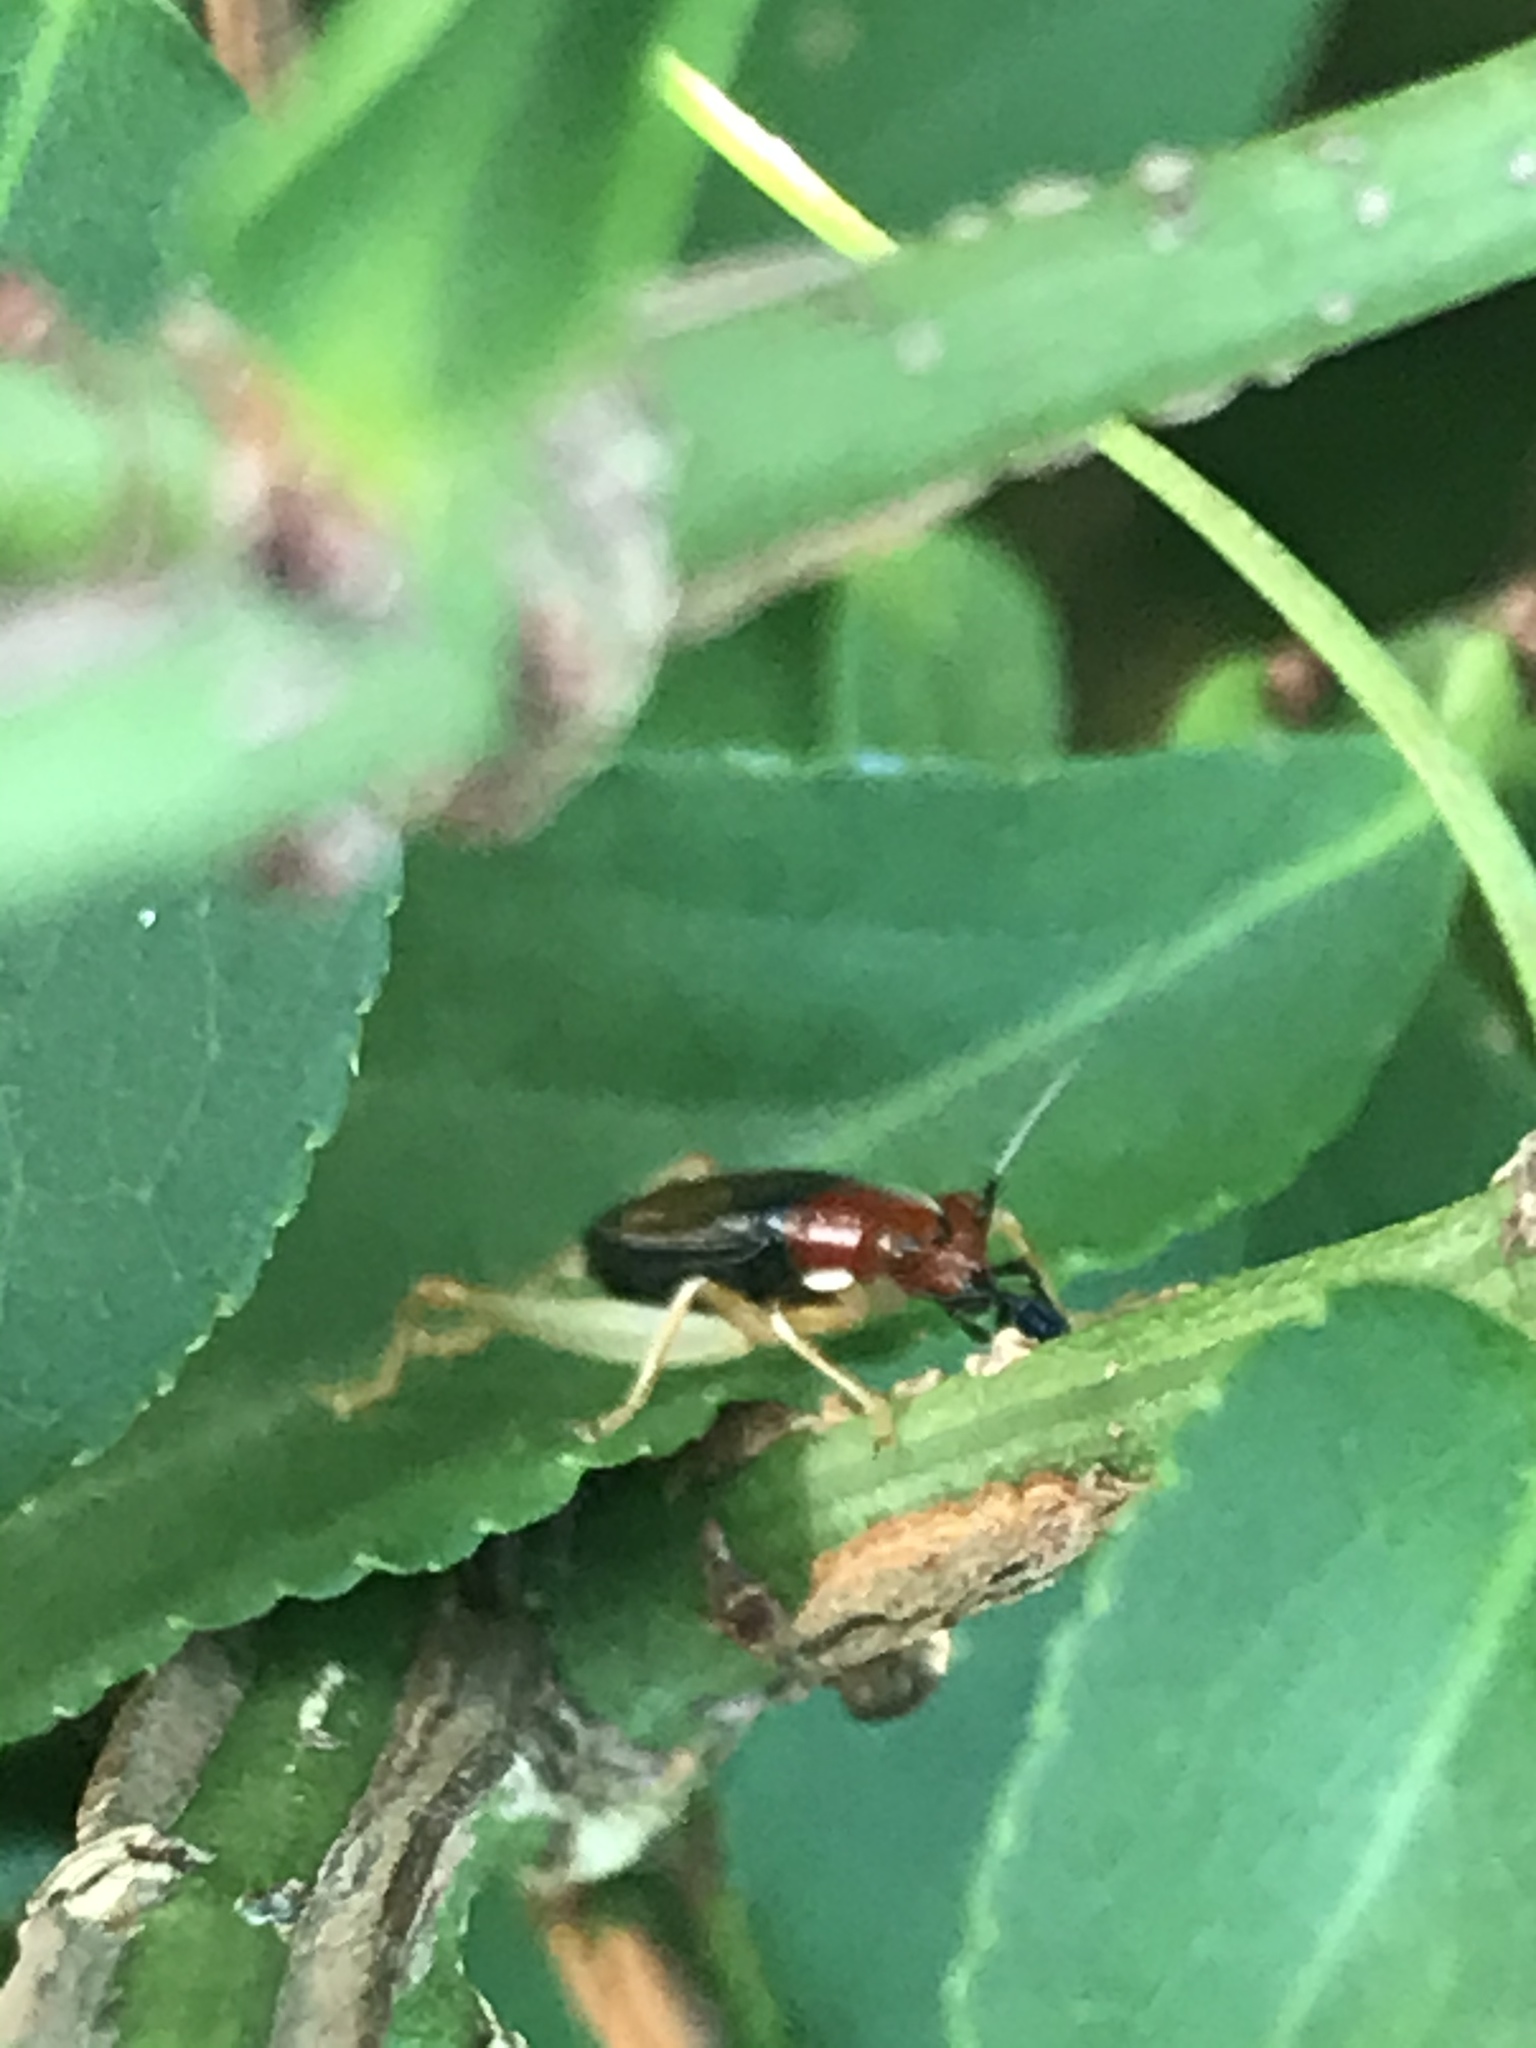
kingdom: Animalia
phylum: Arthropoda
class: Insecta
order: Orthoptera
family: Trigonidiidae
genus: Phyllopalpus
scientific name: Phyllopalpus pulchellus
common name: Handsome trig
